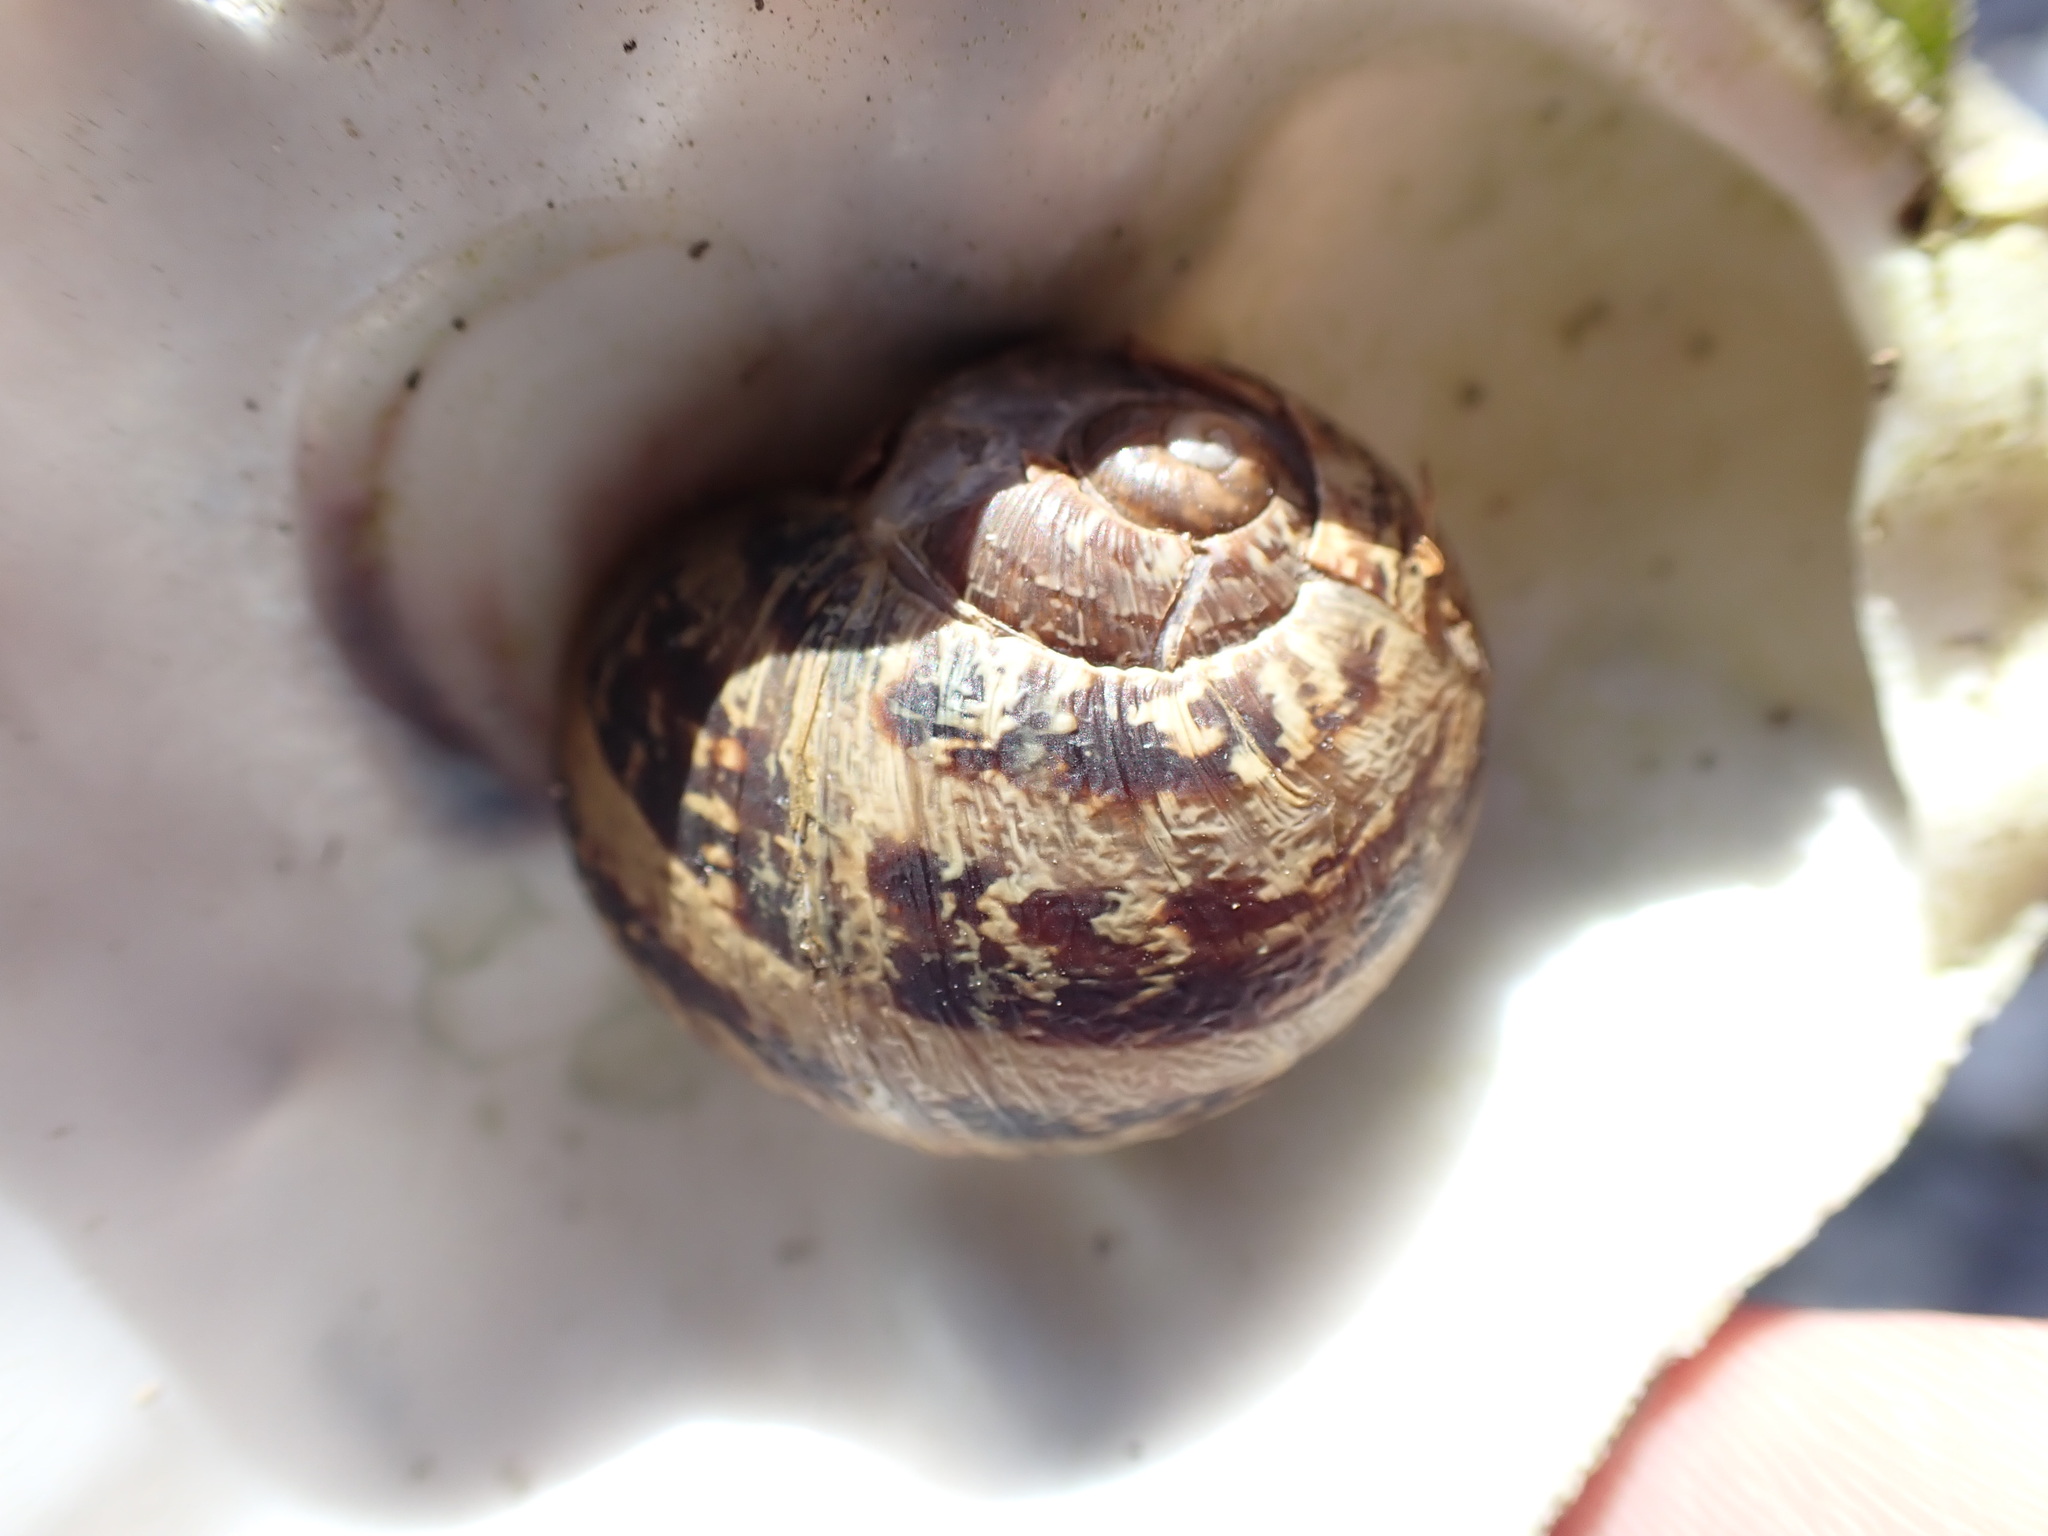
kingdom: Animalia
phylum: Mollusca
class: Gastropoda
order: Stylommatophora
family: Helicidae
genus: Cornu
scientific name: Cornu aspersum
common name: Brown garden snail
